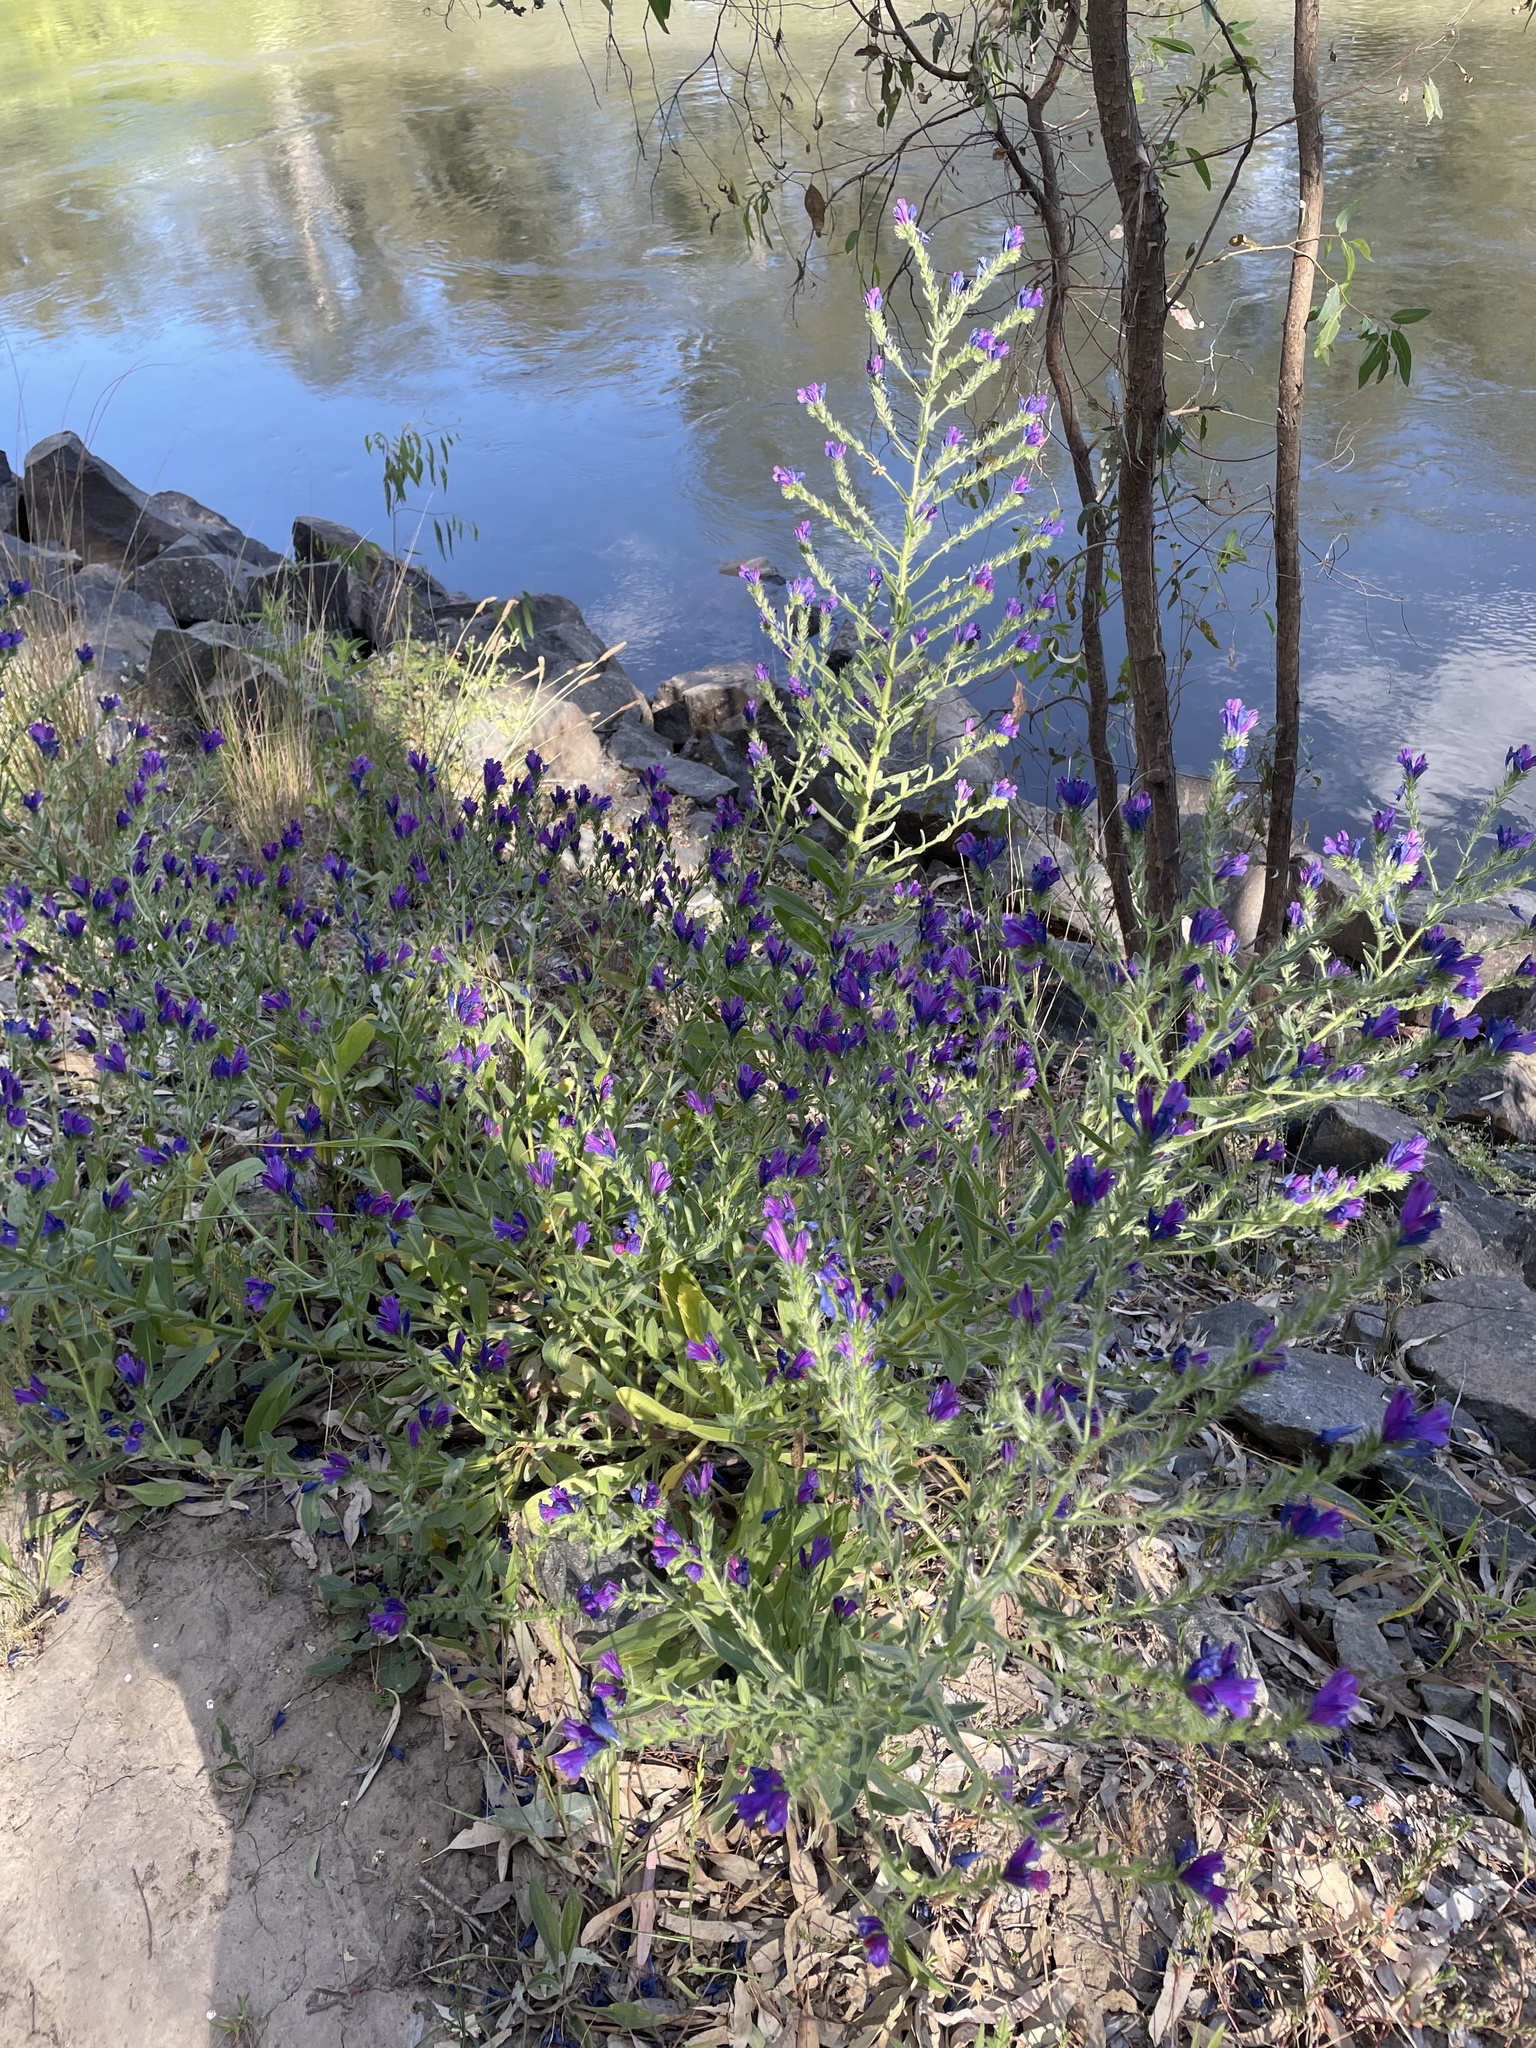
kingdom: Plantae
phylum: Tracheophyta
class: Magnoliopsida
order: Boraginales
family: Boraginaceae
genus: Echium
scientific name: Echium plantagineum
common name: Purple viper's-bugloss
